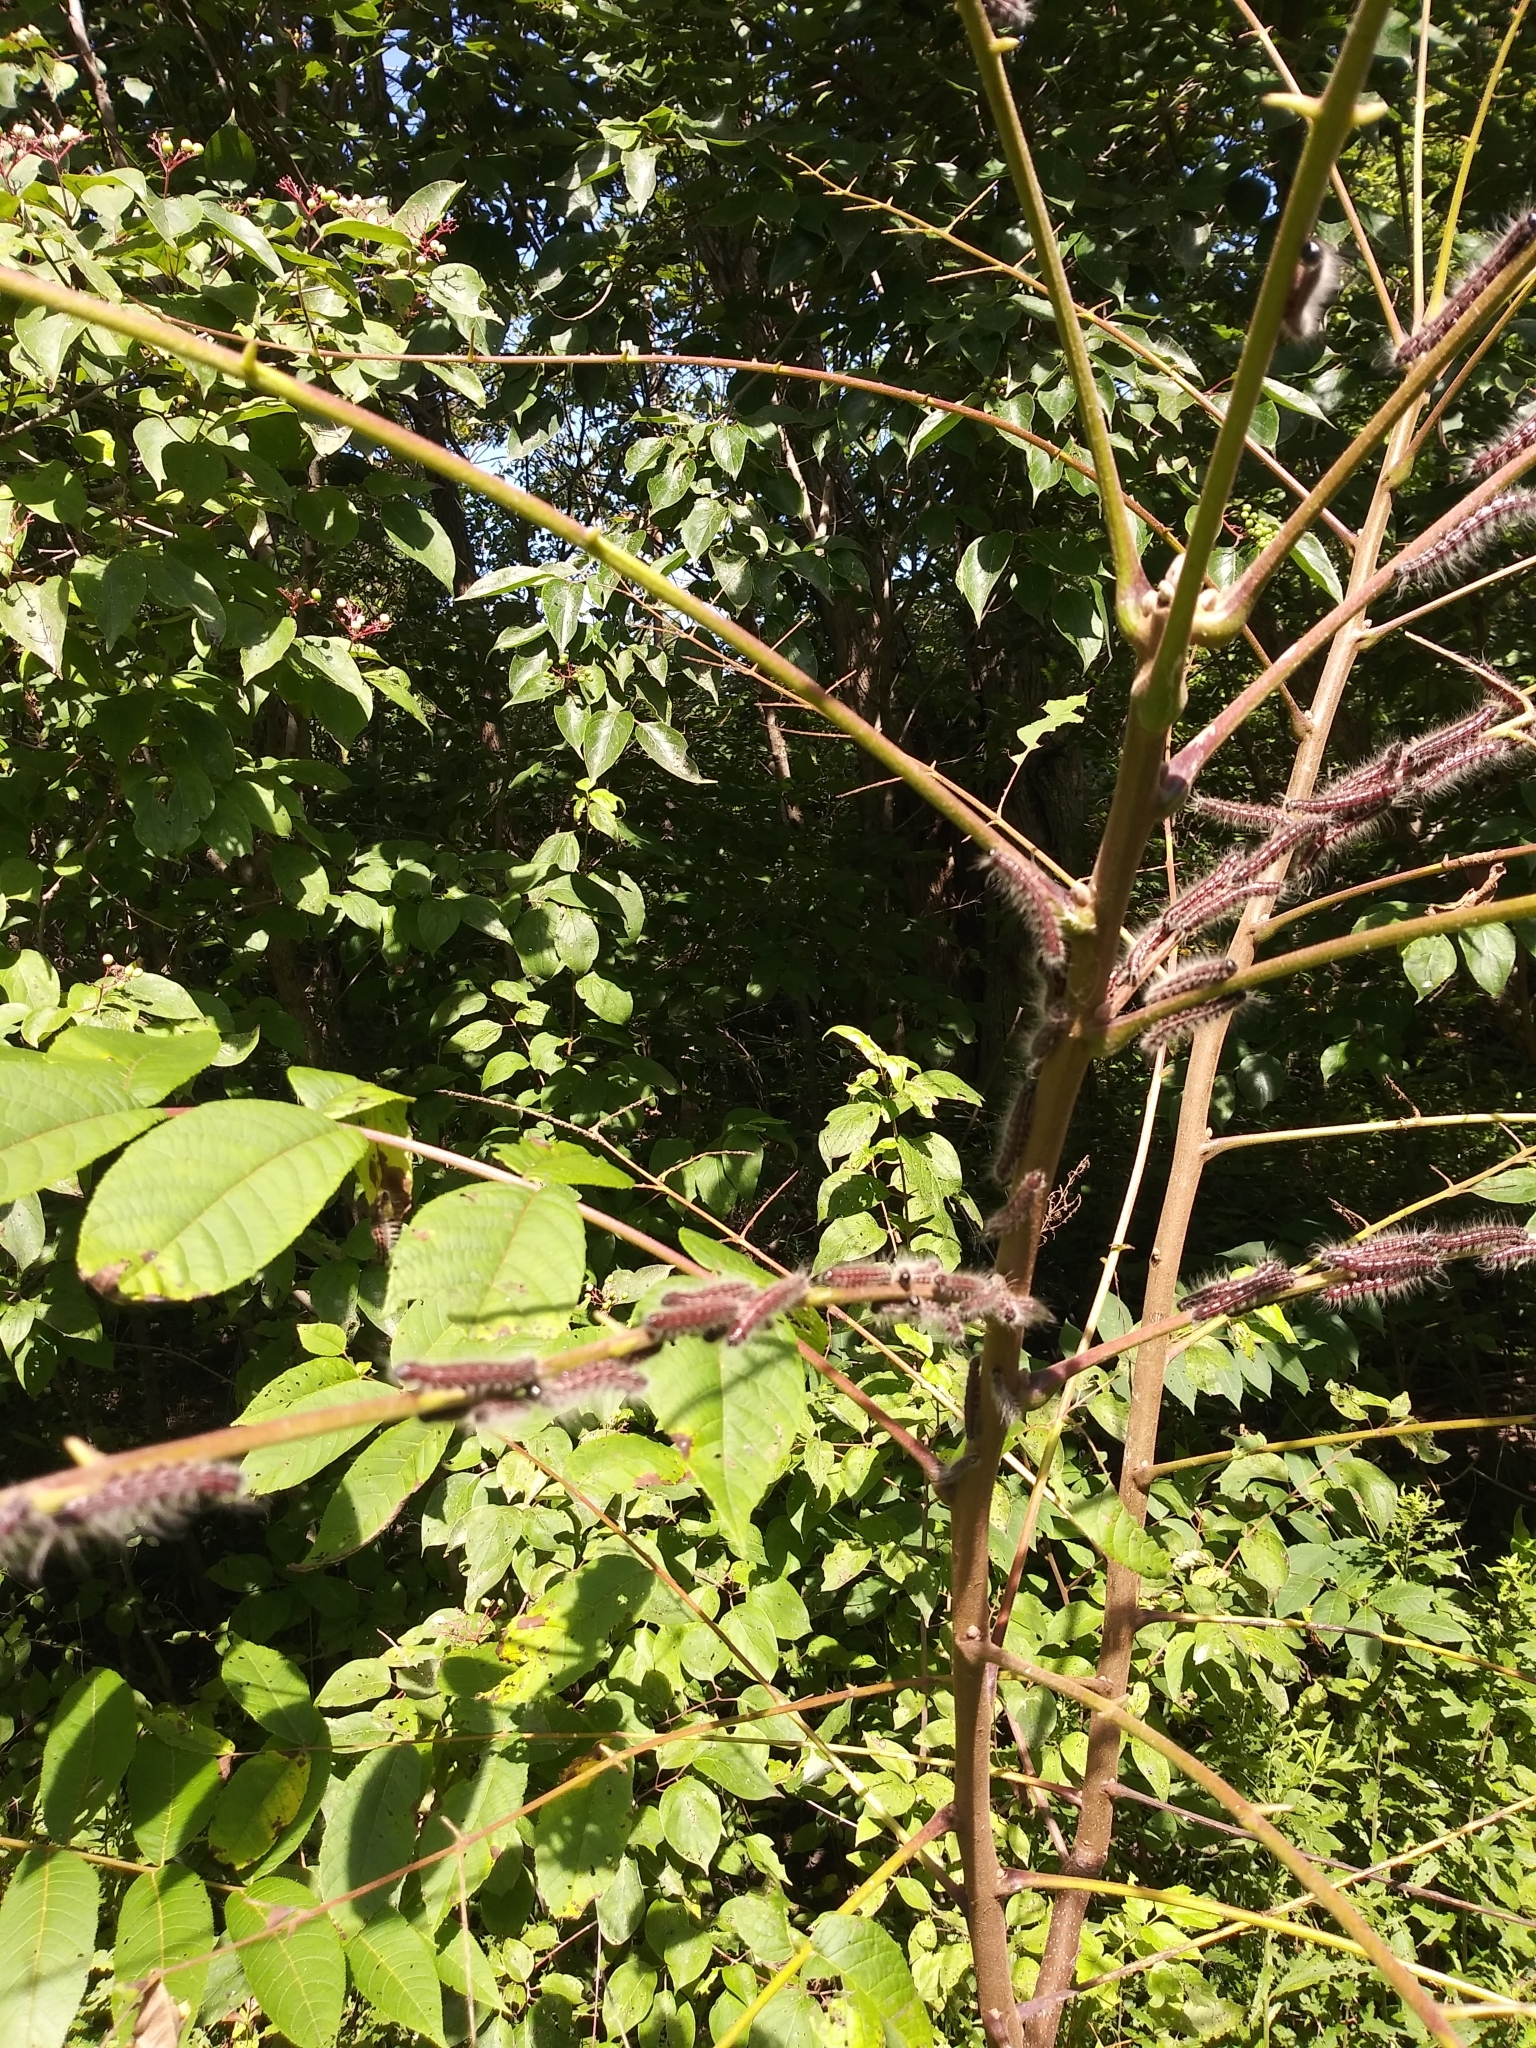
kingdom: Animalia
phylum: Arthropoda
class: Insecta
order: Lepidoptera
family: Notodontidae
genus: Datana
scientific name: Datana integerrima
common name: Walnut caterpillar
